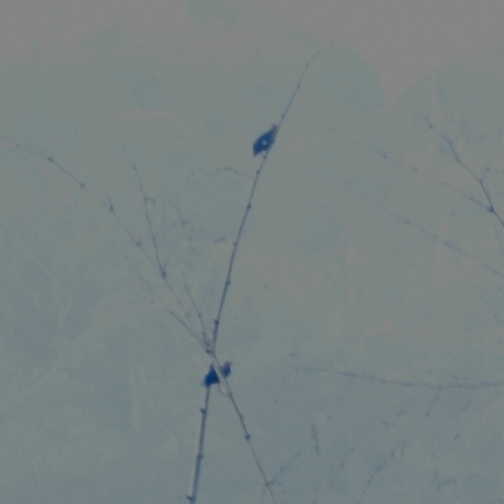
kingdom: Animalia
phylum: Chordata
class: Aves
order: Passeriformes
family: Sturnidae
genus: Gracula
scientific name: Gracula indica
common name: Southern hill myna
